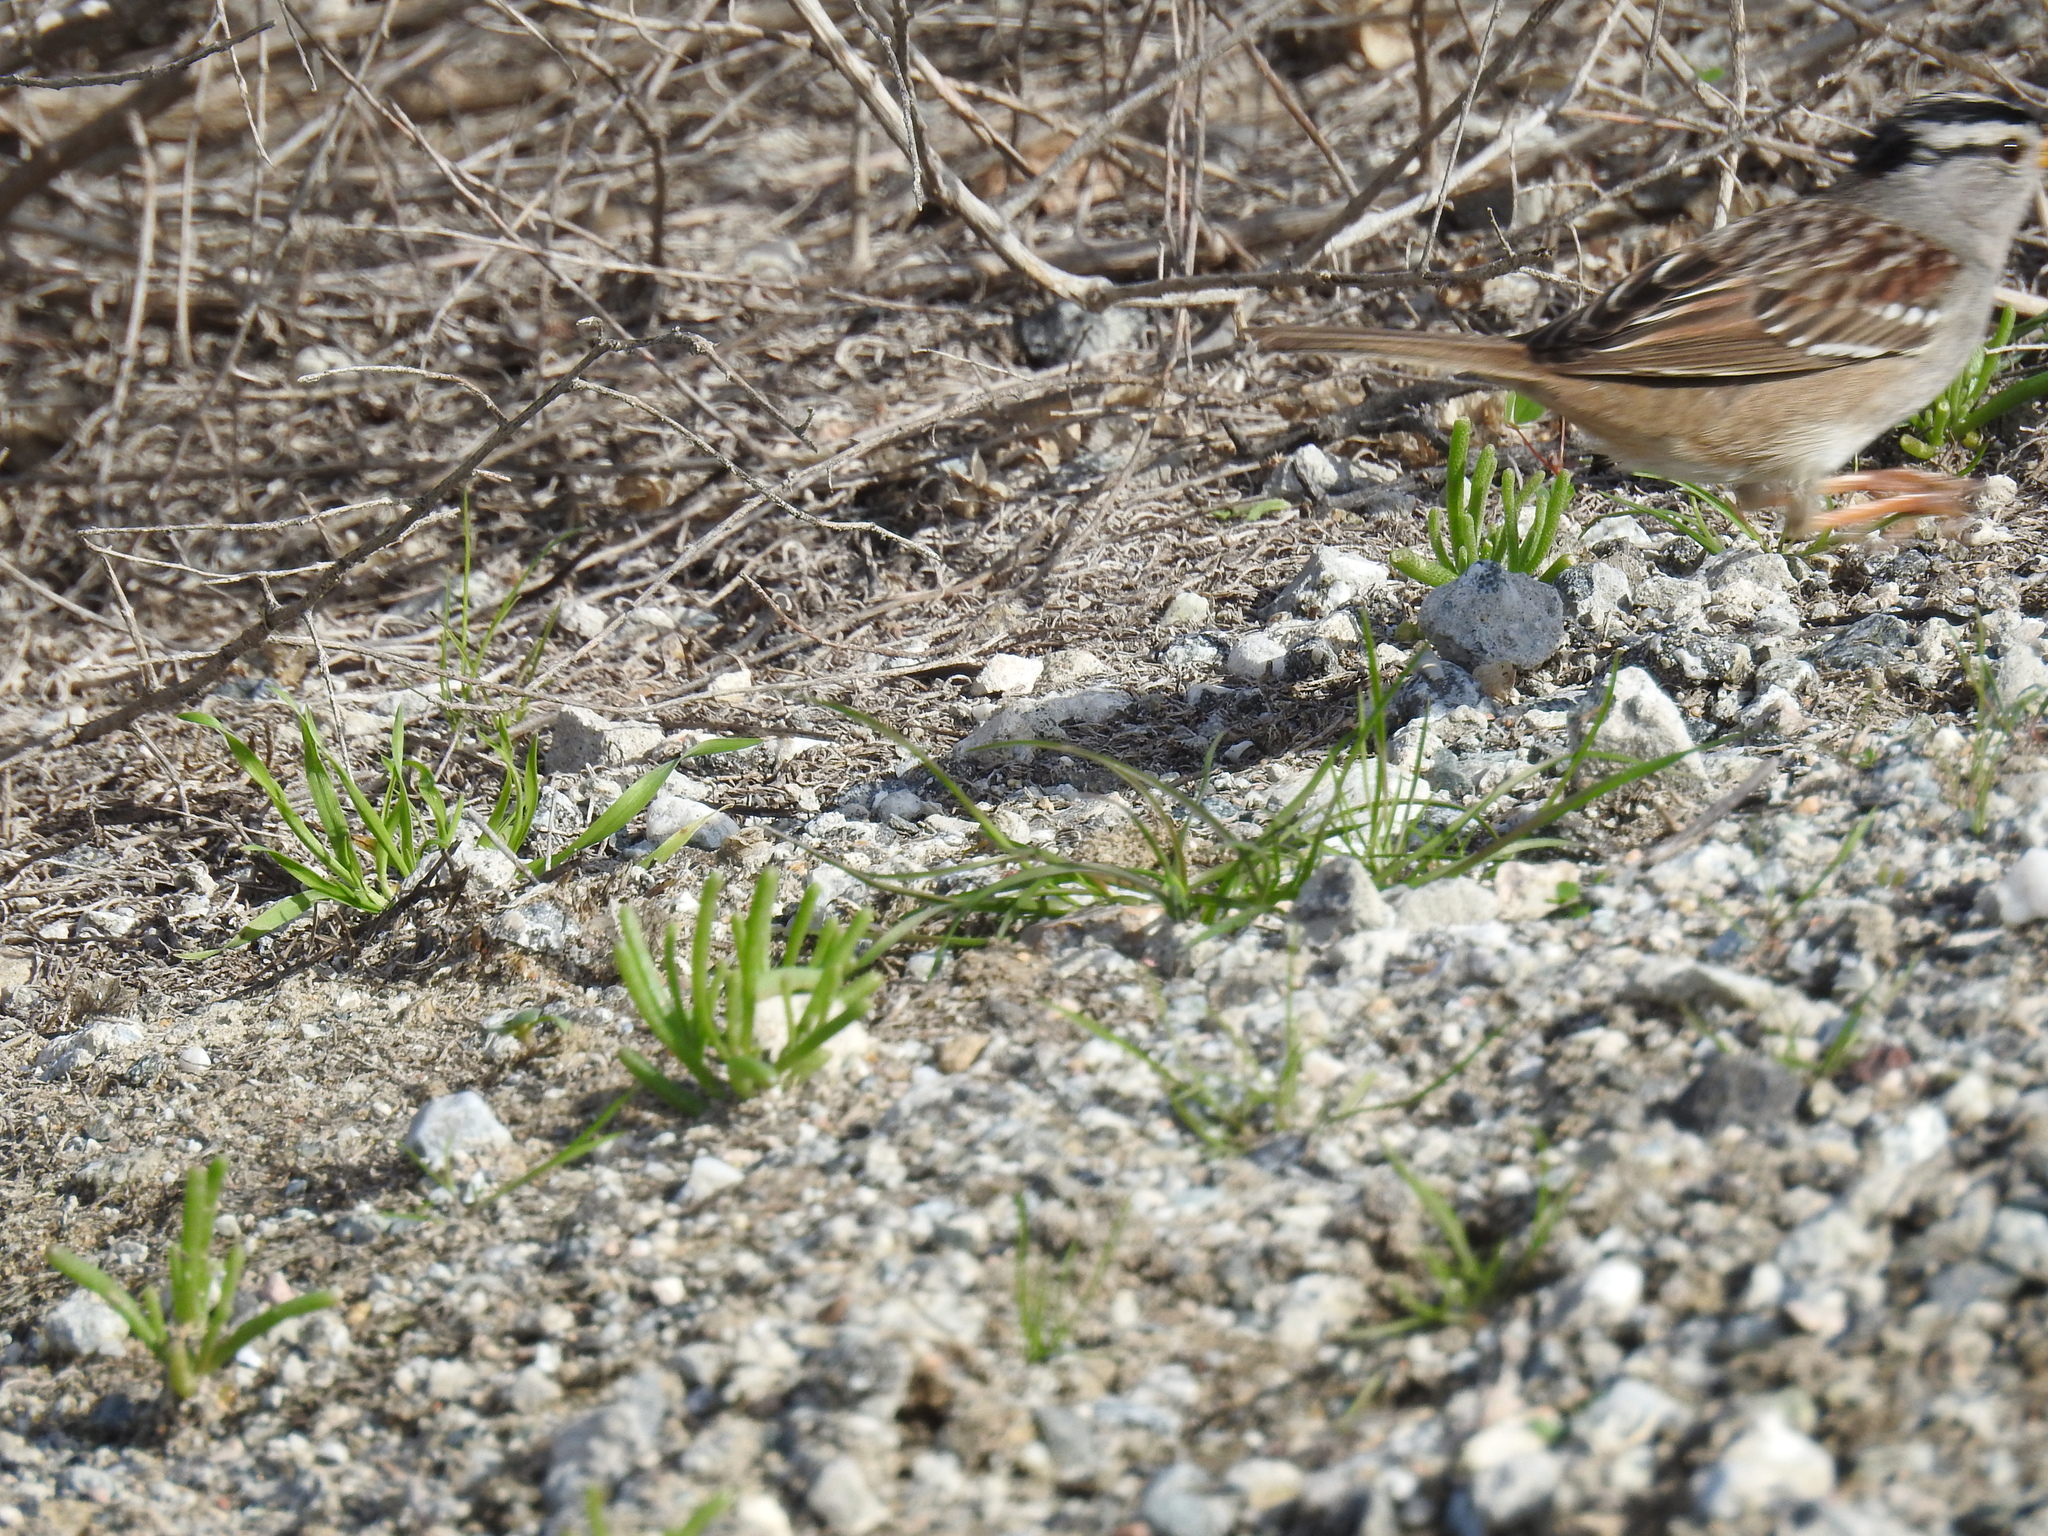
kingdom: Animalia
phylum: Chordata
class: Aves
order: Passeriformes
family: Passerellidae
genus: Zonotrichia
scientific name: Zonotrichia leucophrys
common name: White-crowned sparrow
